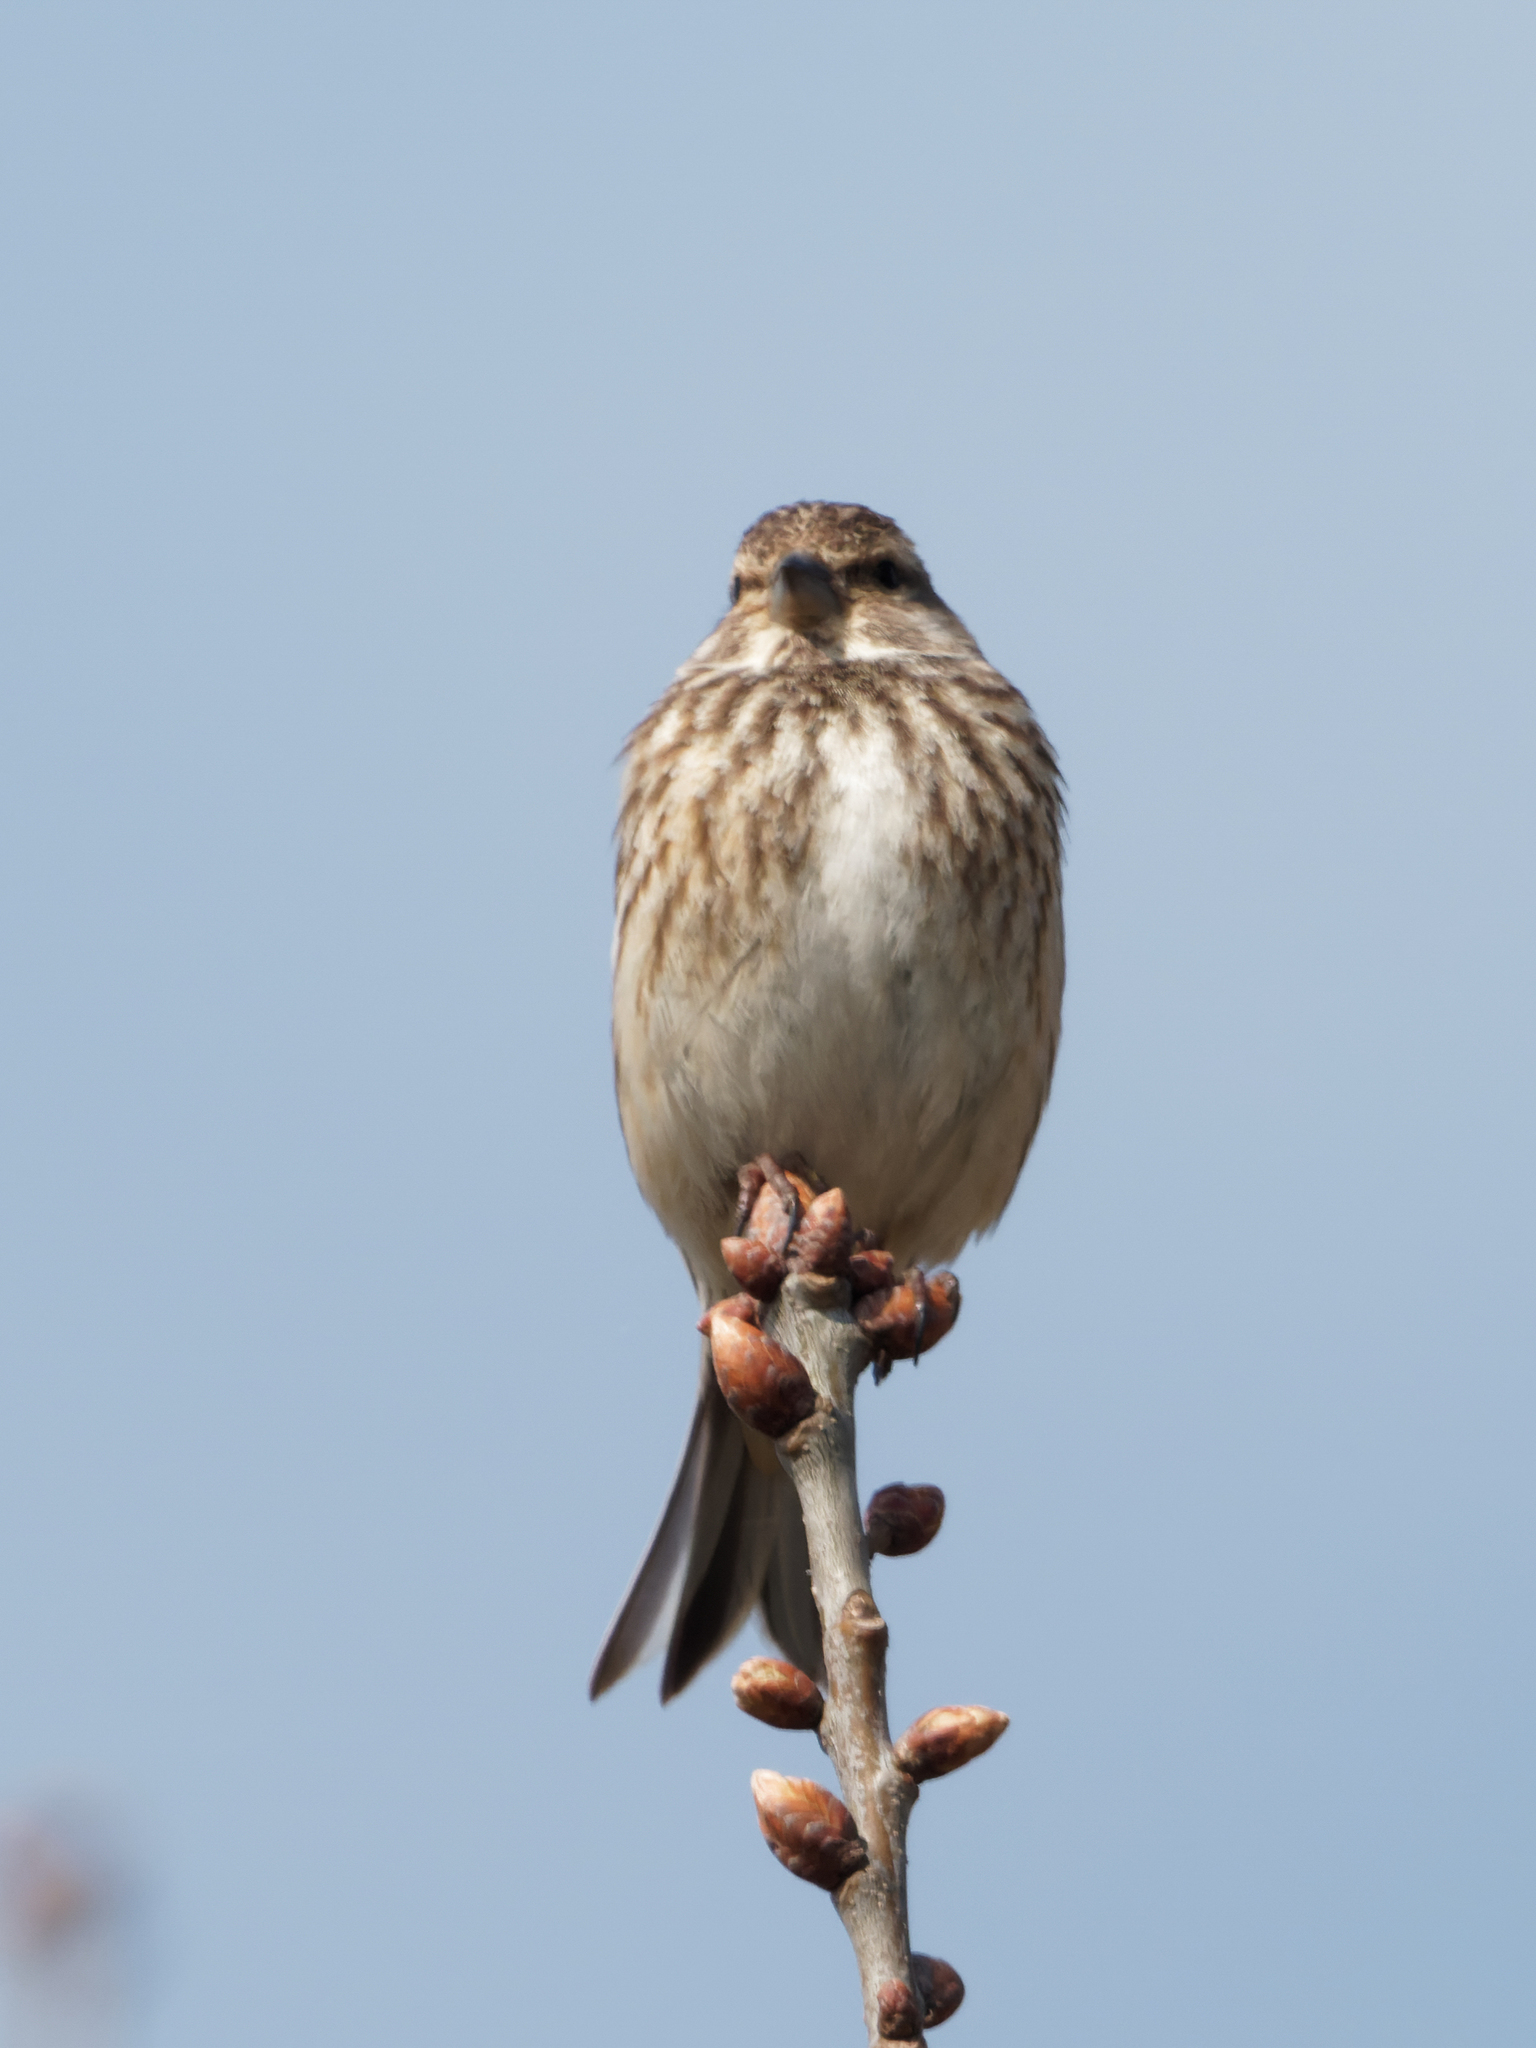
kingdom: Animalia
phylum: Chordata
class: Aves
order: Passeriformes
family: Fringillidae
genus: Linaria
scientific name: Linaria cannabina
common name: Common linnet
